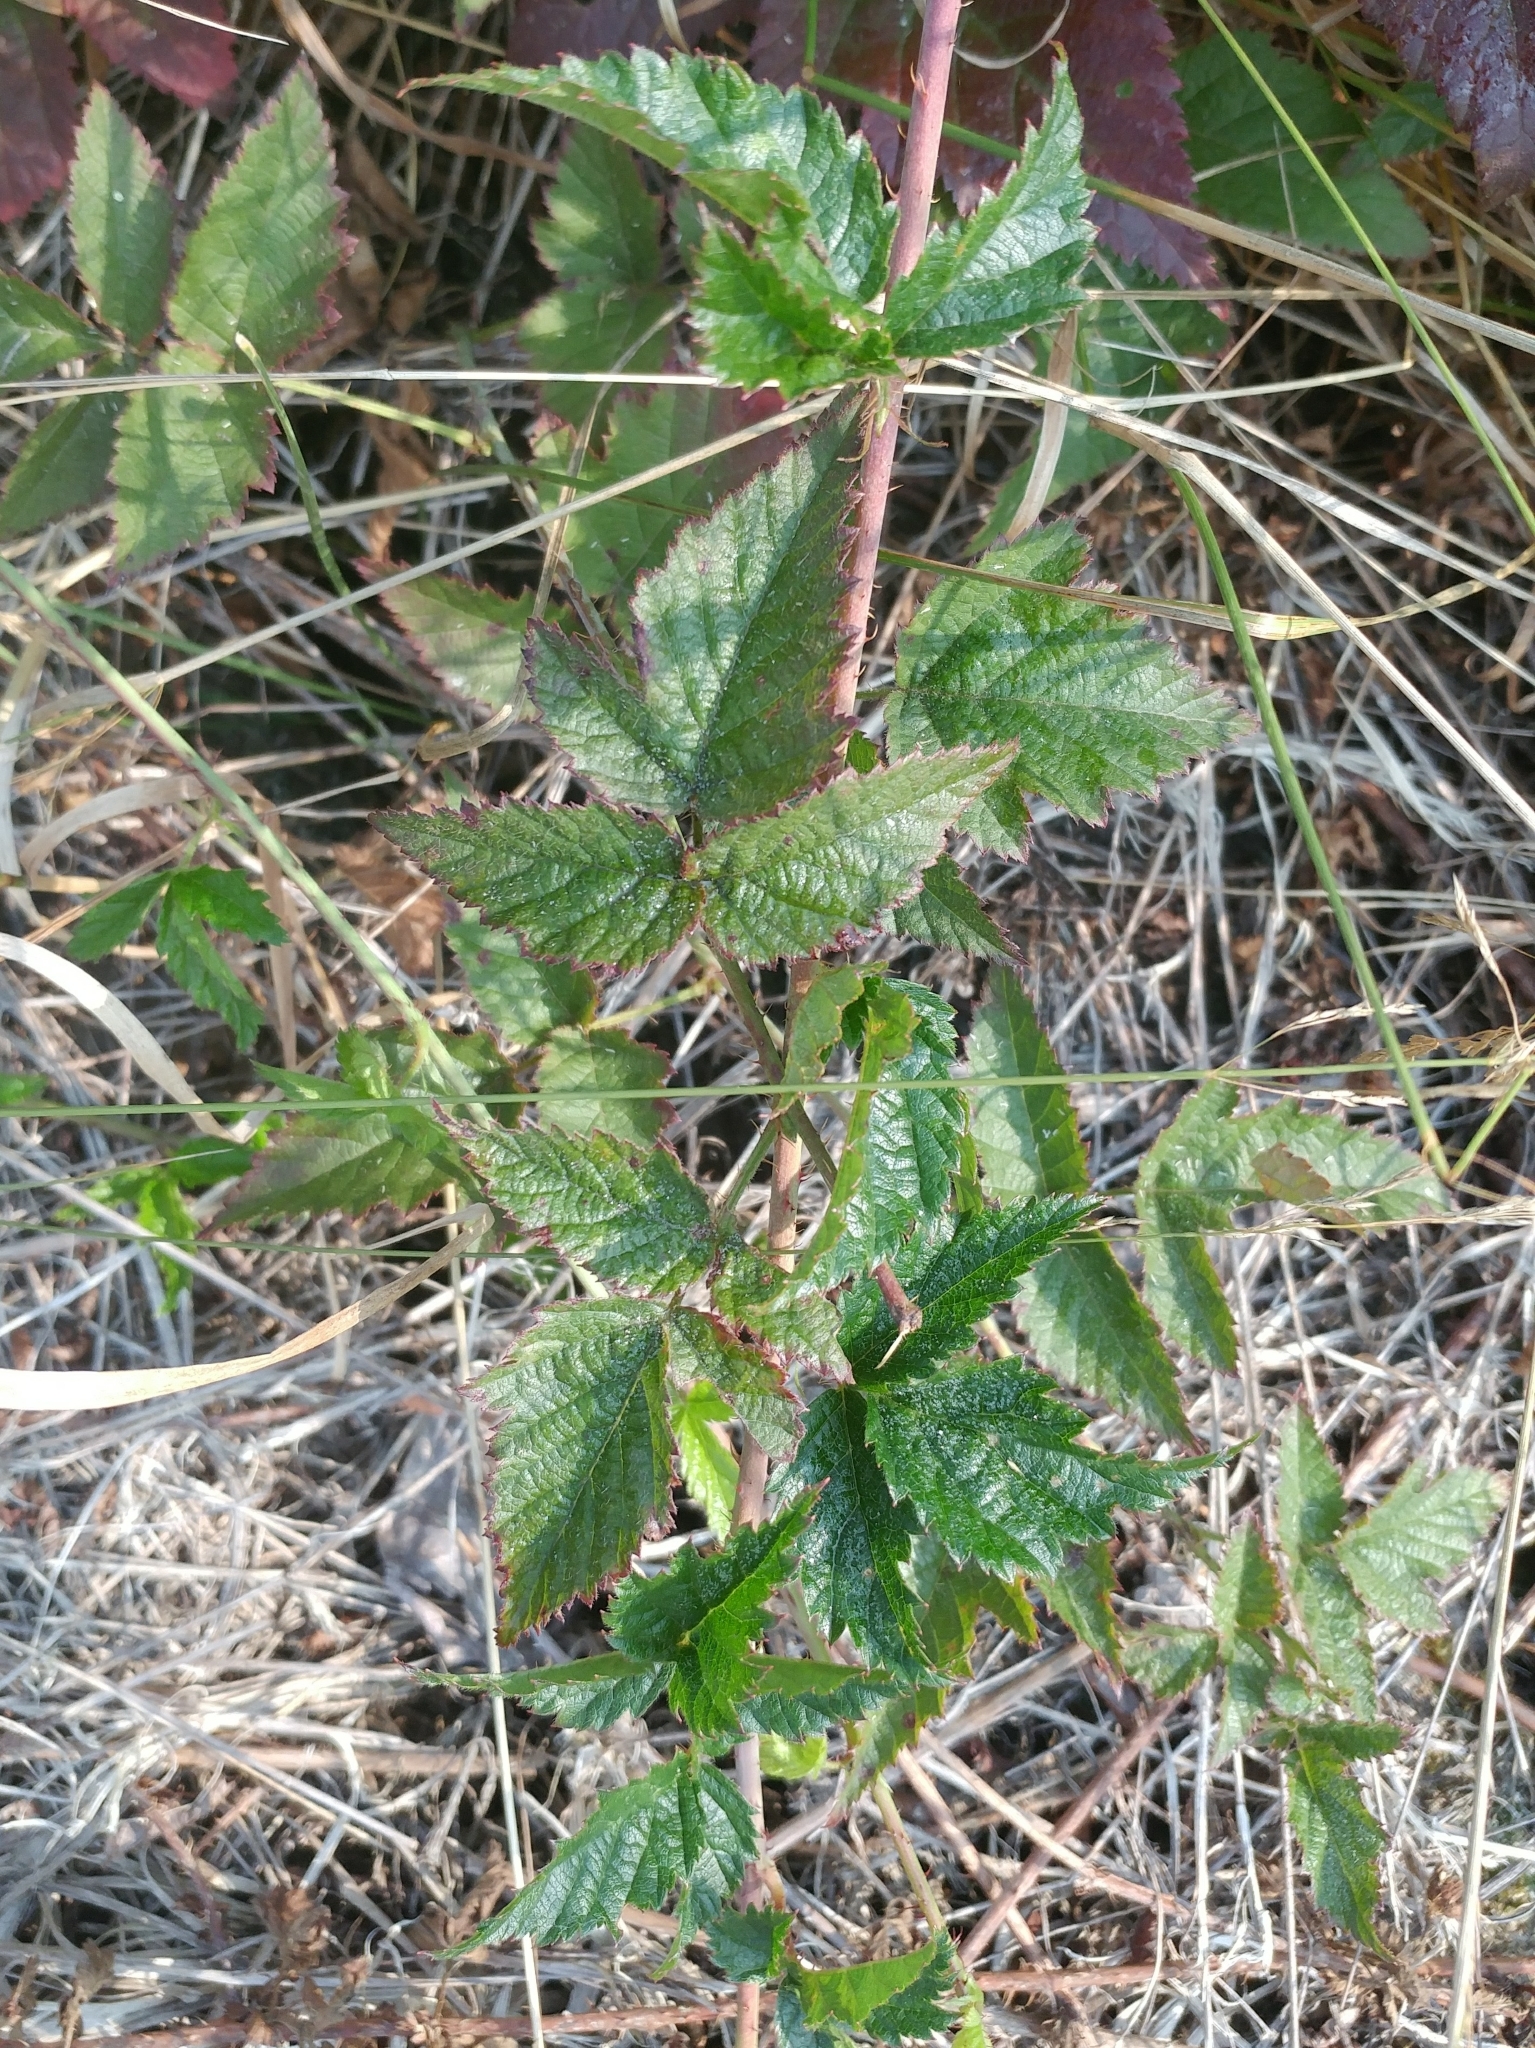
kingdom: Plantae
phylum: Tracheophyta
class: Magnoliopsida
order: Rosales
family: Rosaceae
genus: Rubus
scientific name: Rubus ursinus
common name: Pacific blackberry
